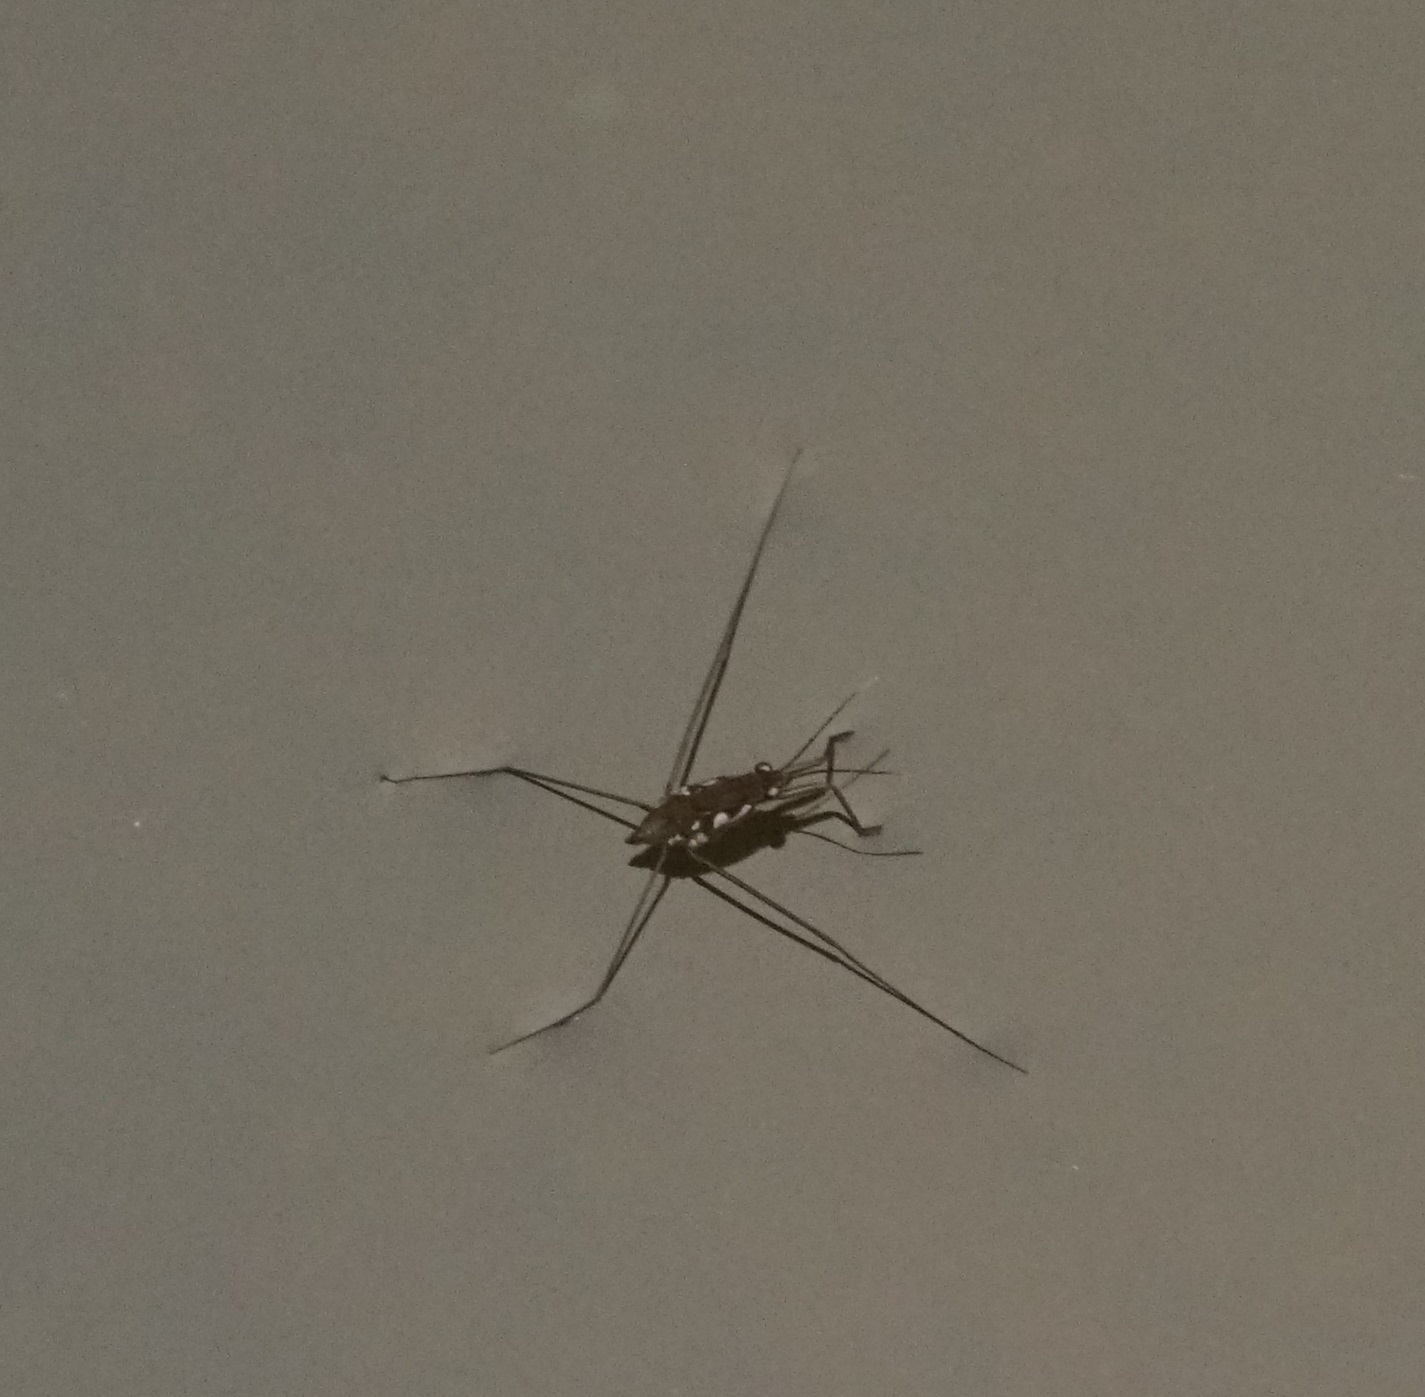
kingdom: Animalia
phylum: Arthropoda
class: Insecta
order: Hemiptera
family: Gerridae
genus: Tenagogerris
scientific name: Tenagogerris euphrosyne
